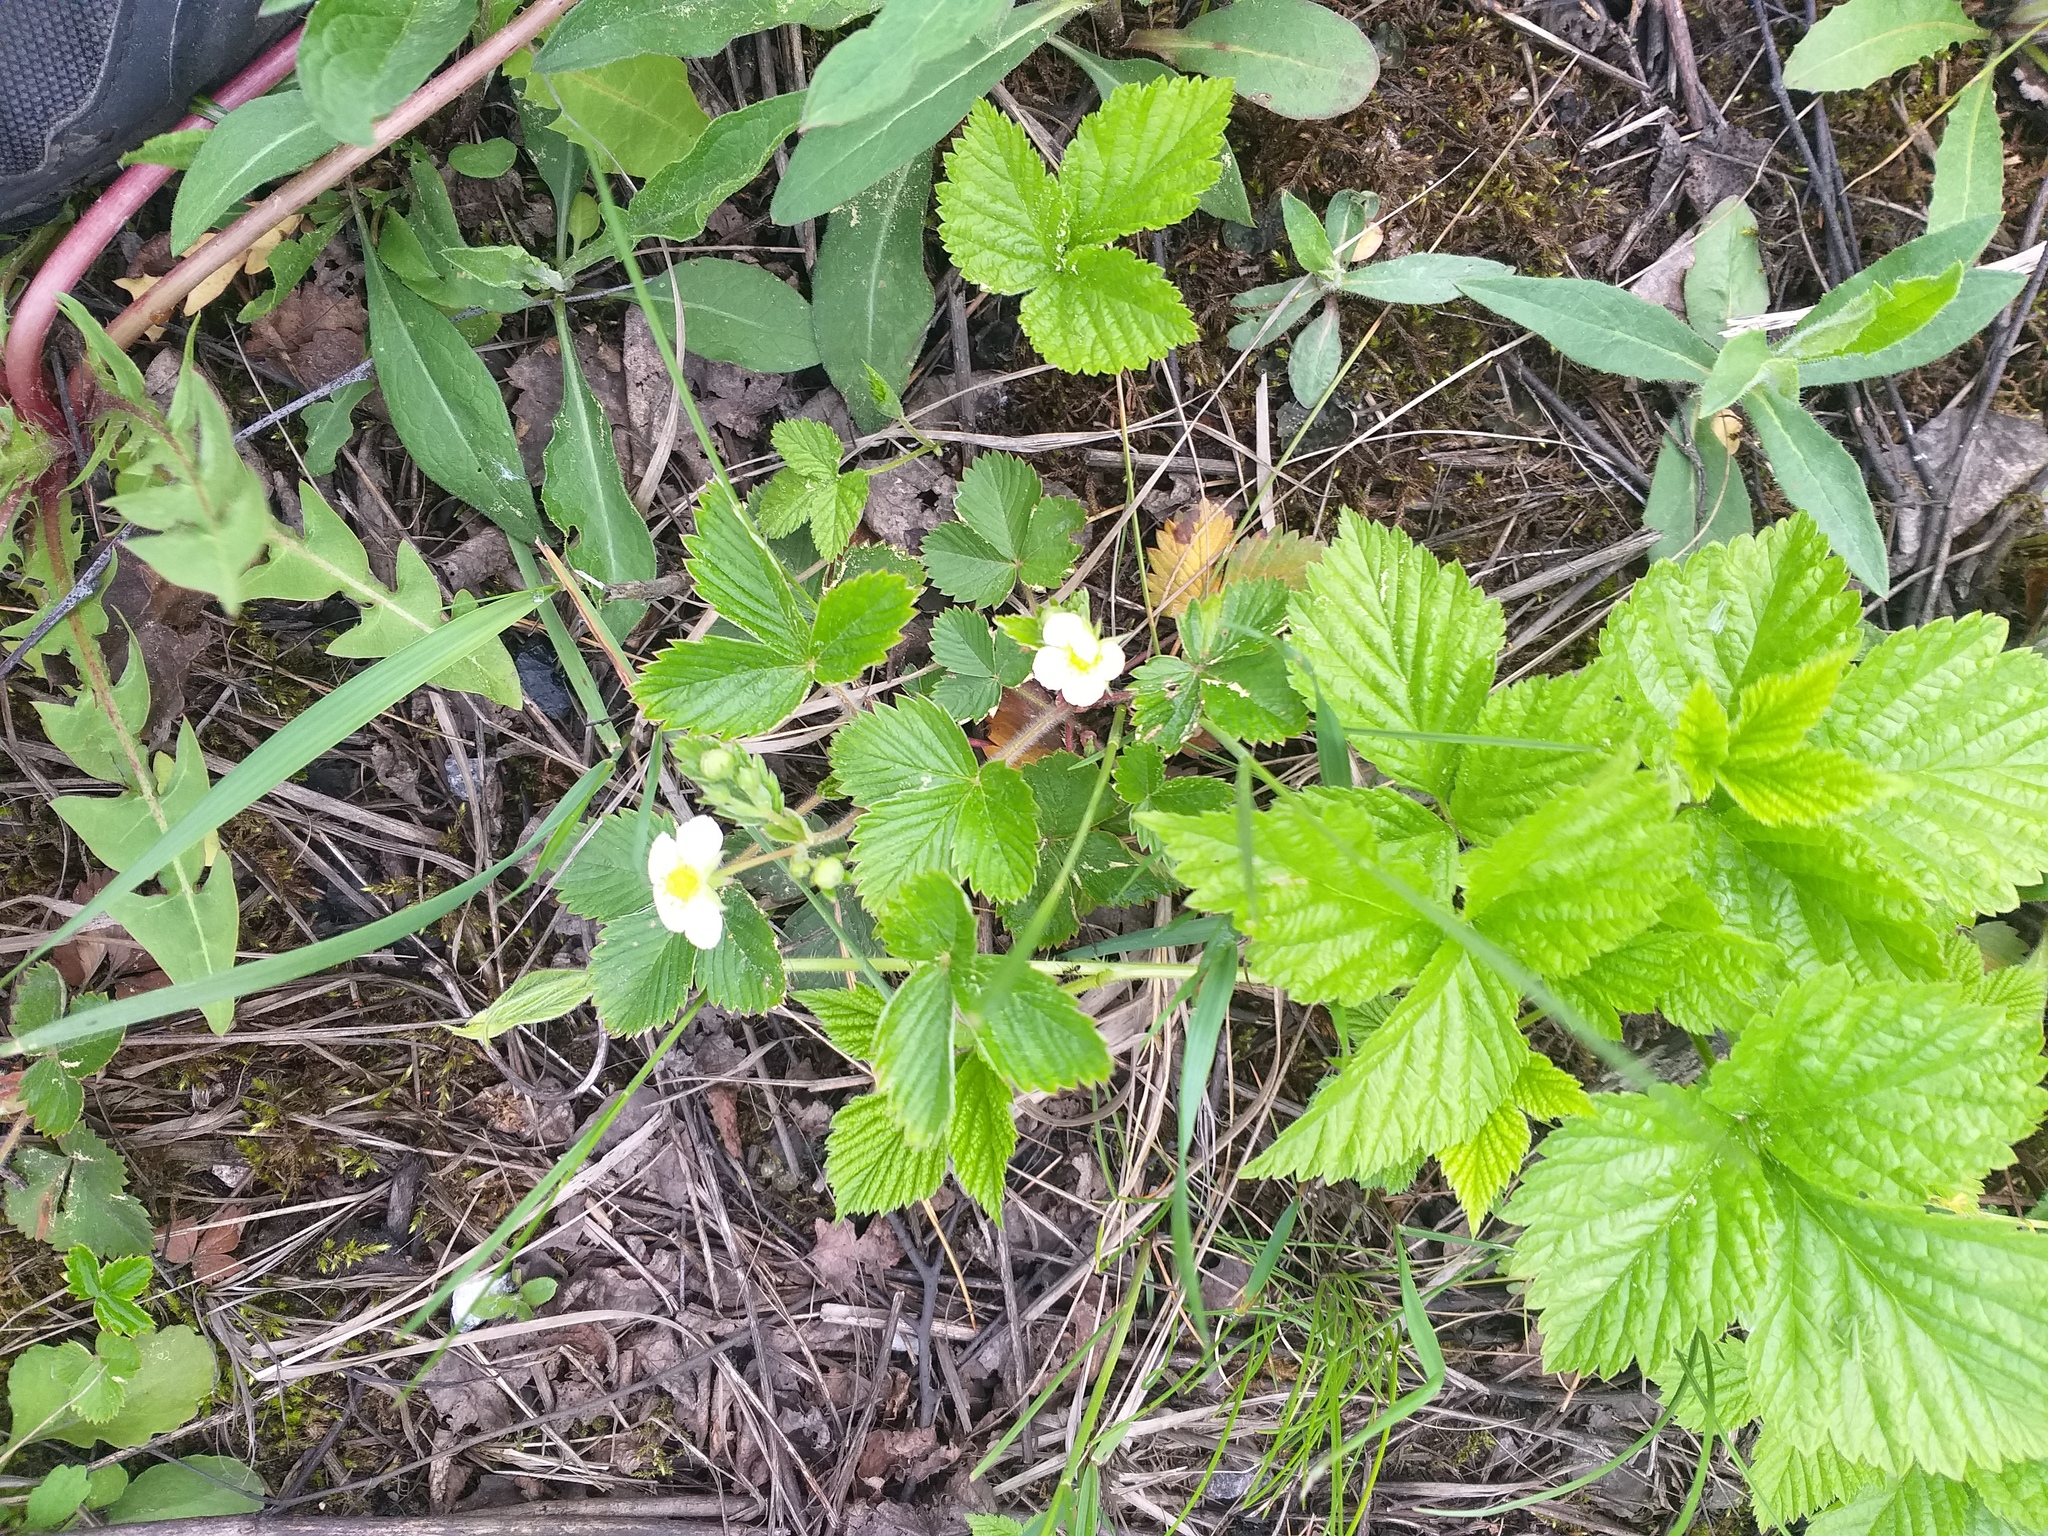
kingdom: Plantae
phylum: Tracheophyta
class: Magnoliopsida
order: Rosales
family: Rosaceae
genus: Fragaria
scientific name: Fragaria vesca
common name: Wild strawberry
